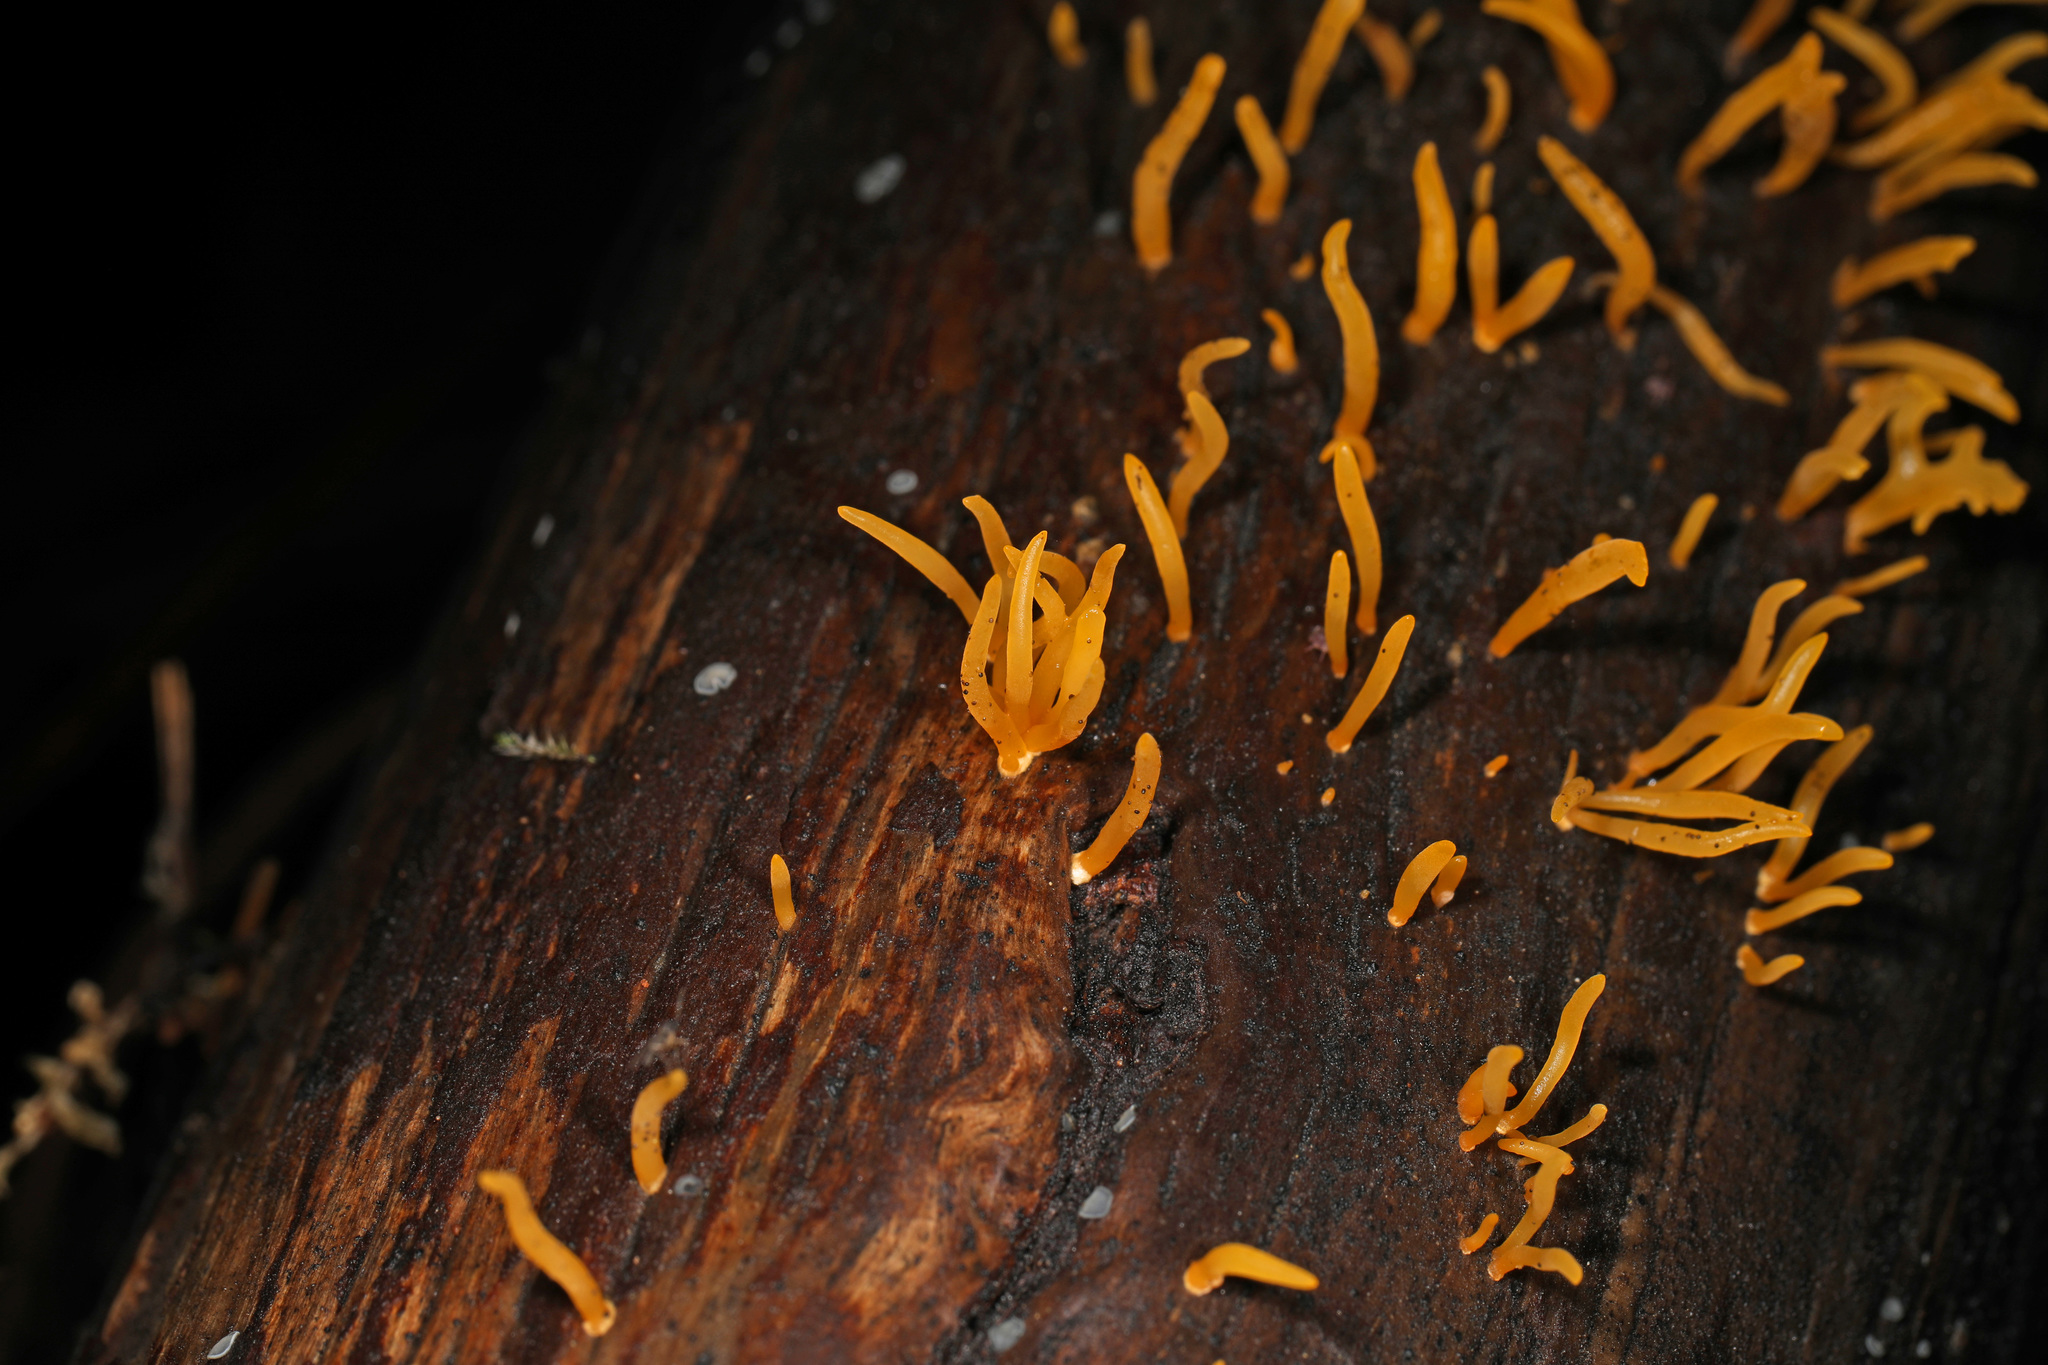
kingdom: Fungi
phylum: Basidiomycota
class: Dacrymycetes
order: Dacrymycetales
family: Dacrymycetaceae
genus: Calocera
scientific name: Calocera cornea
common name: Small stagshorn
